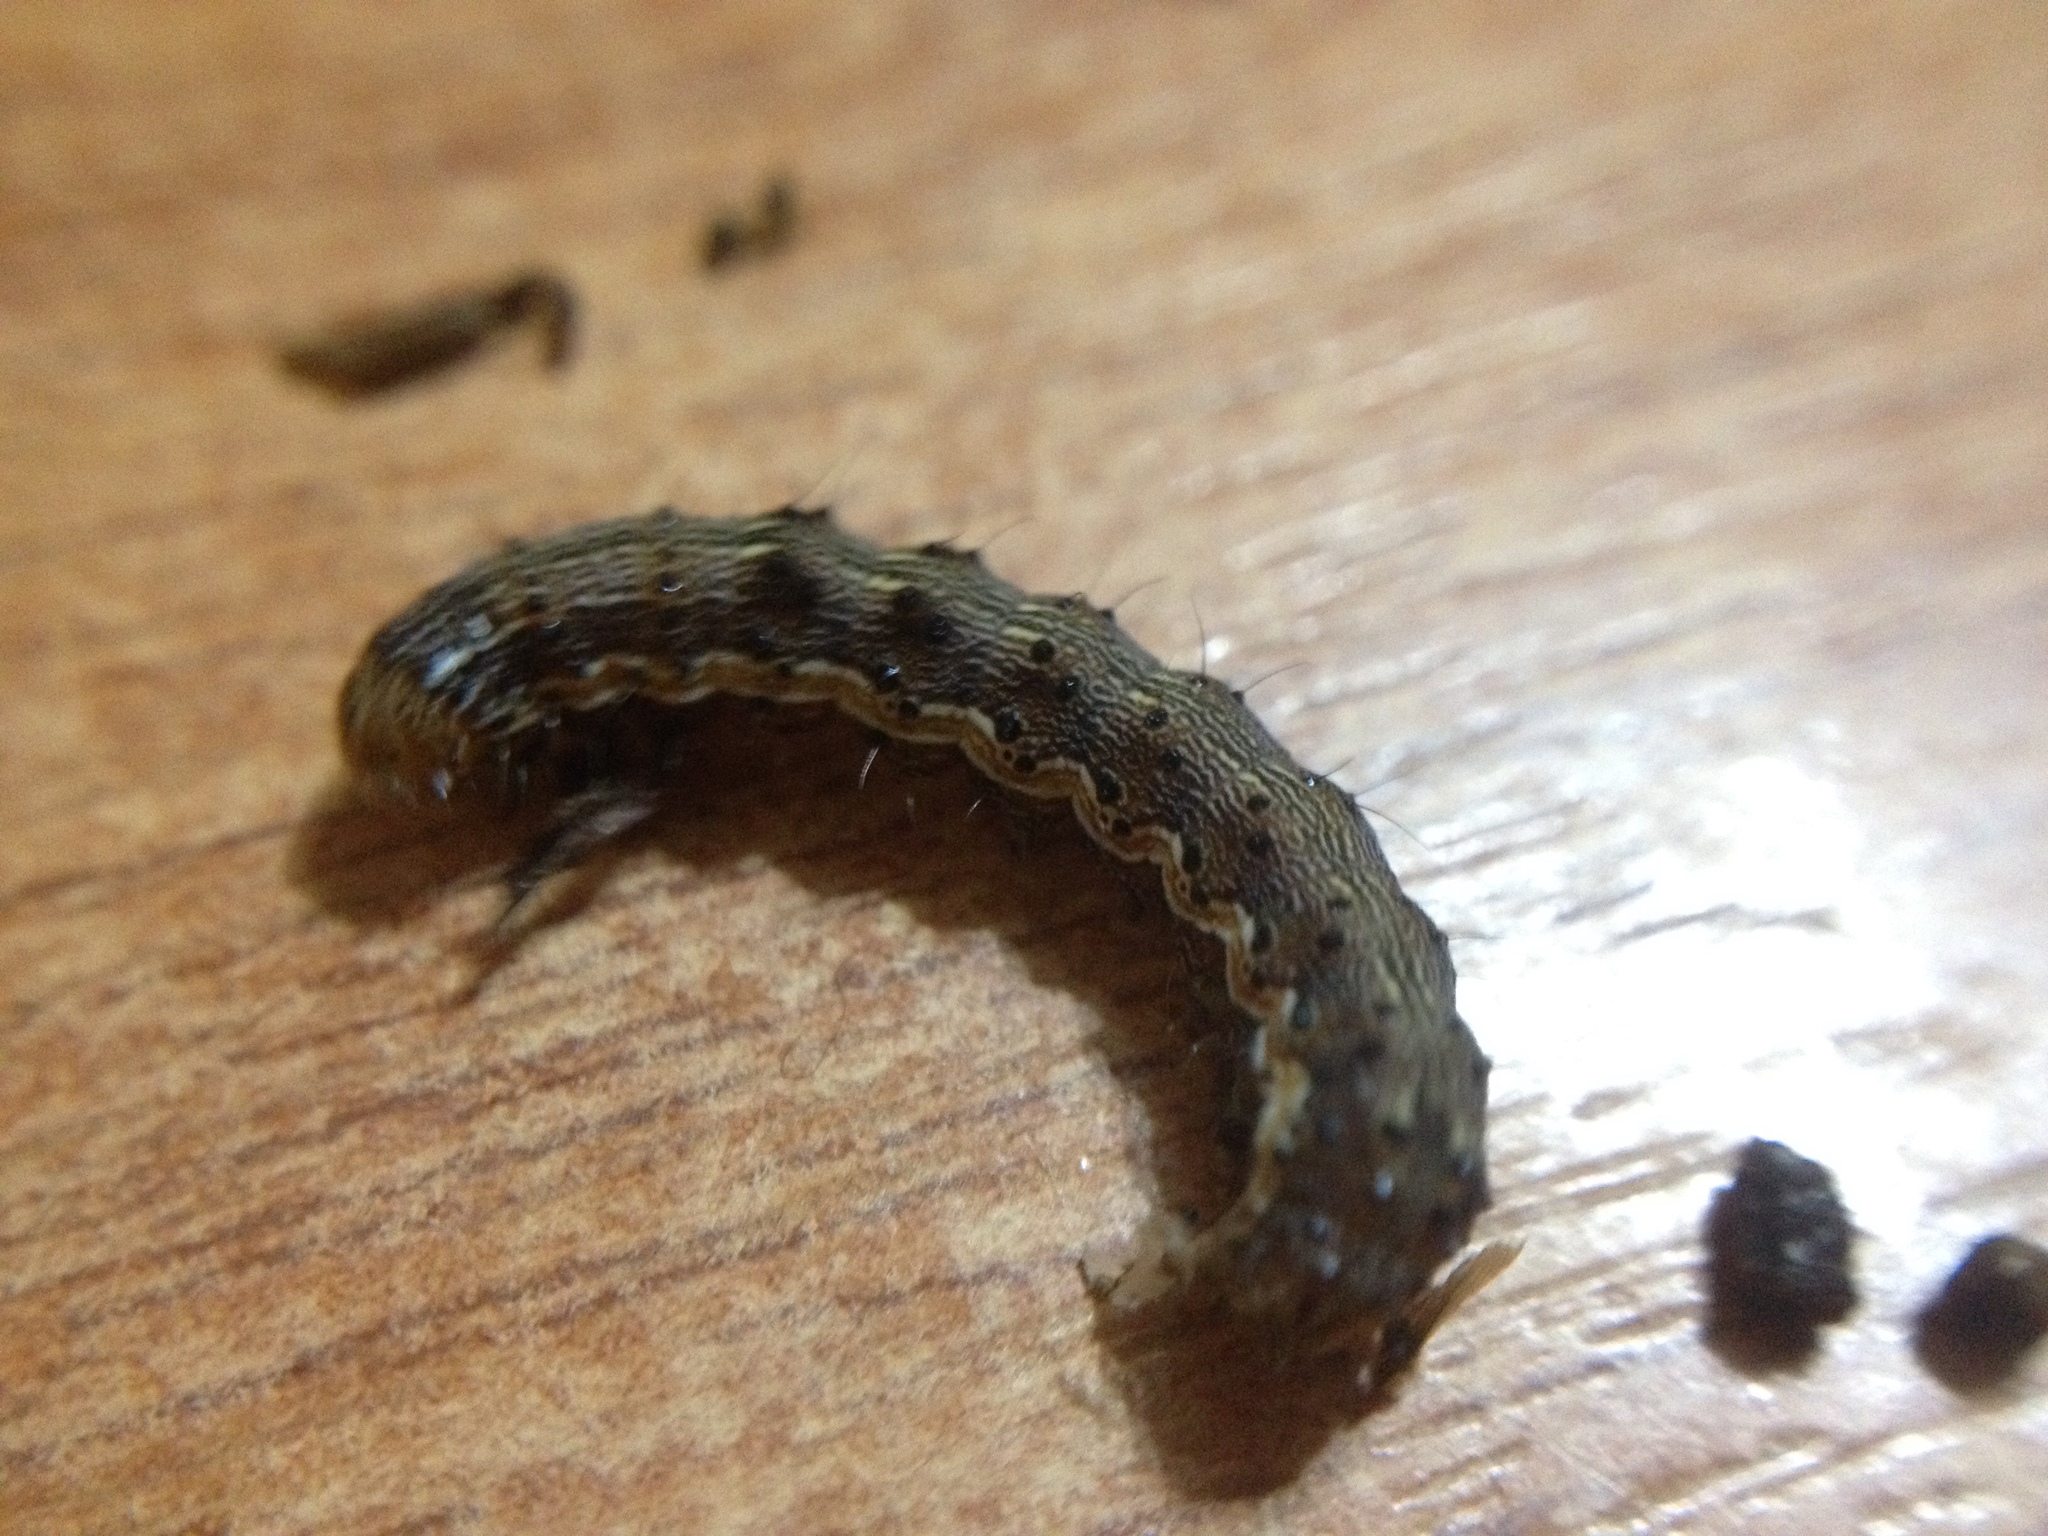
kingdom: Animalia
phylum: Arthropoda
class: Insecta
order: Lepidoptera
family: Noctuidae
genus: Helicoverpa
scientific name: Helicoverpa armigera
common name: Cotton bollworm
